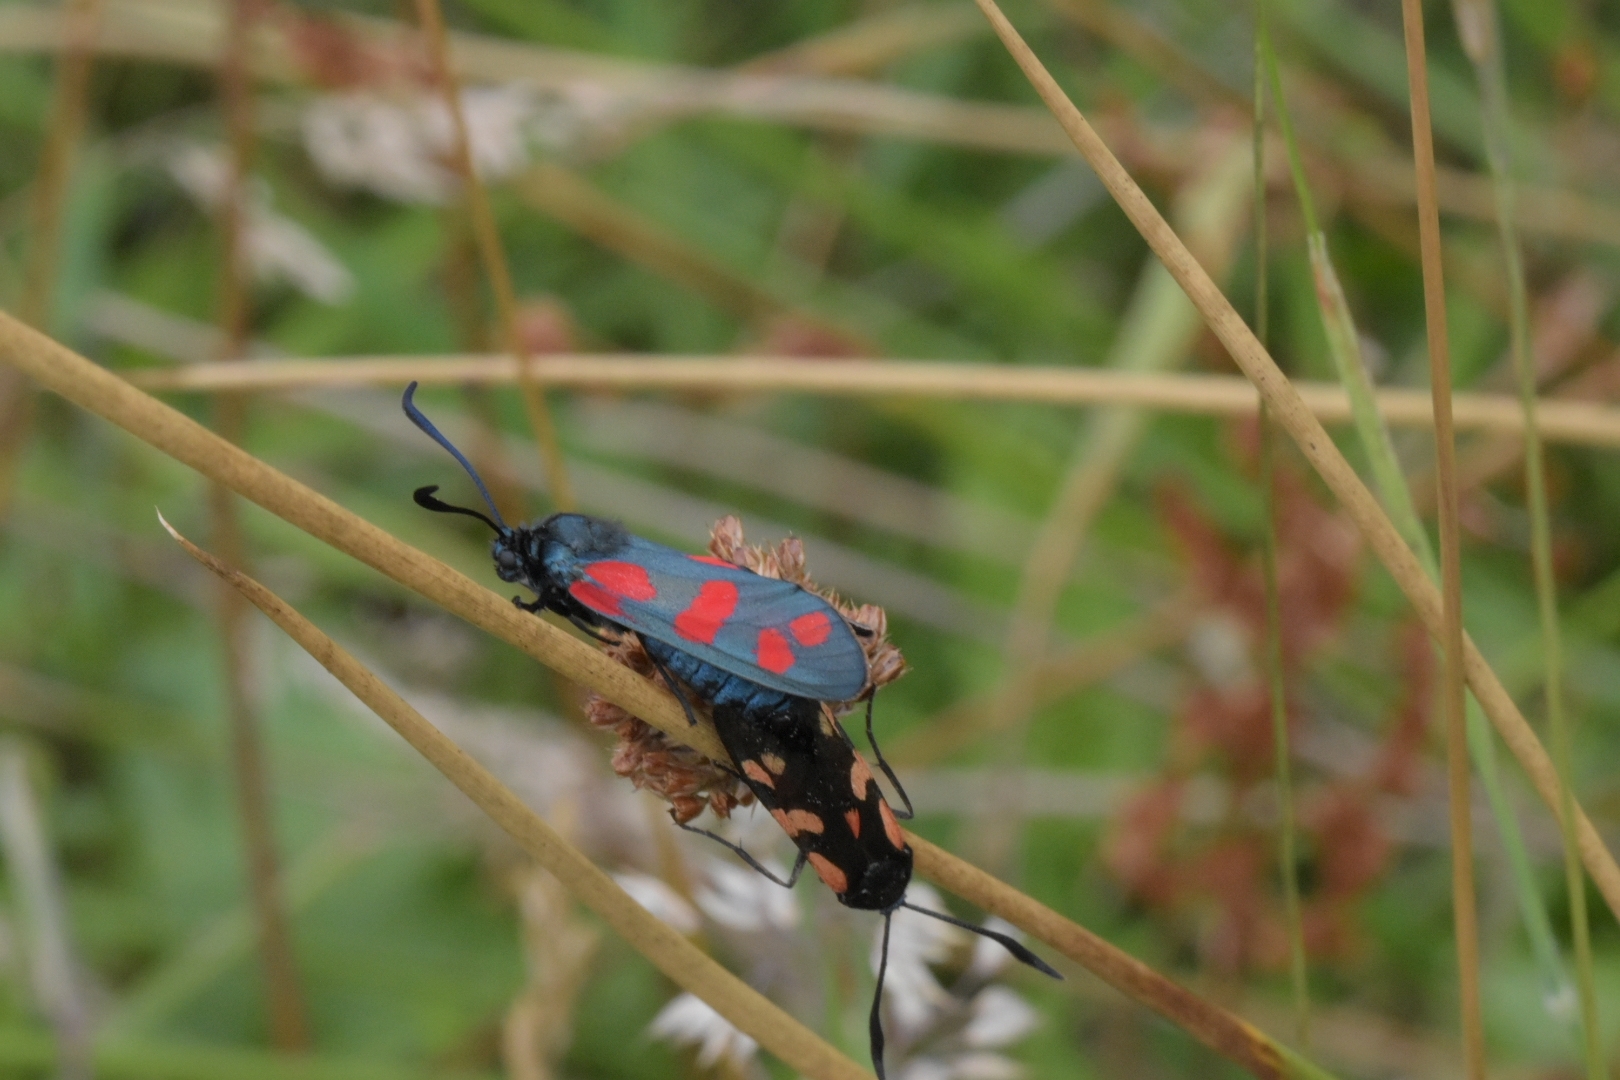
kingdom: Animalia
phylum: Arthropoda
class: Insecta
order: Lepidoptera
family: Zygaenidae
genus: Zygaena
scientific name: Zygaena filipendulae
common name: Six-spot burnet
